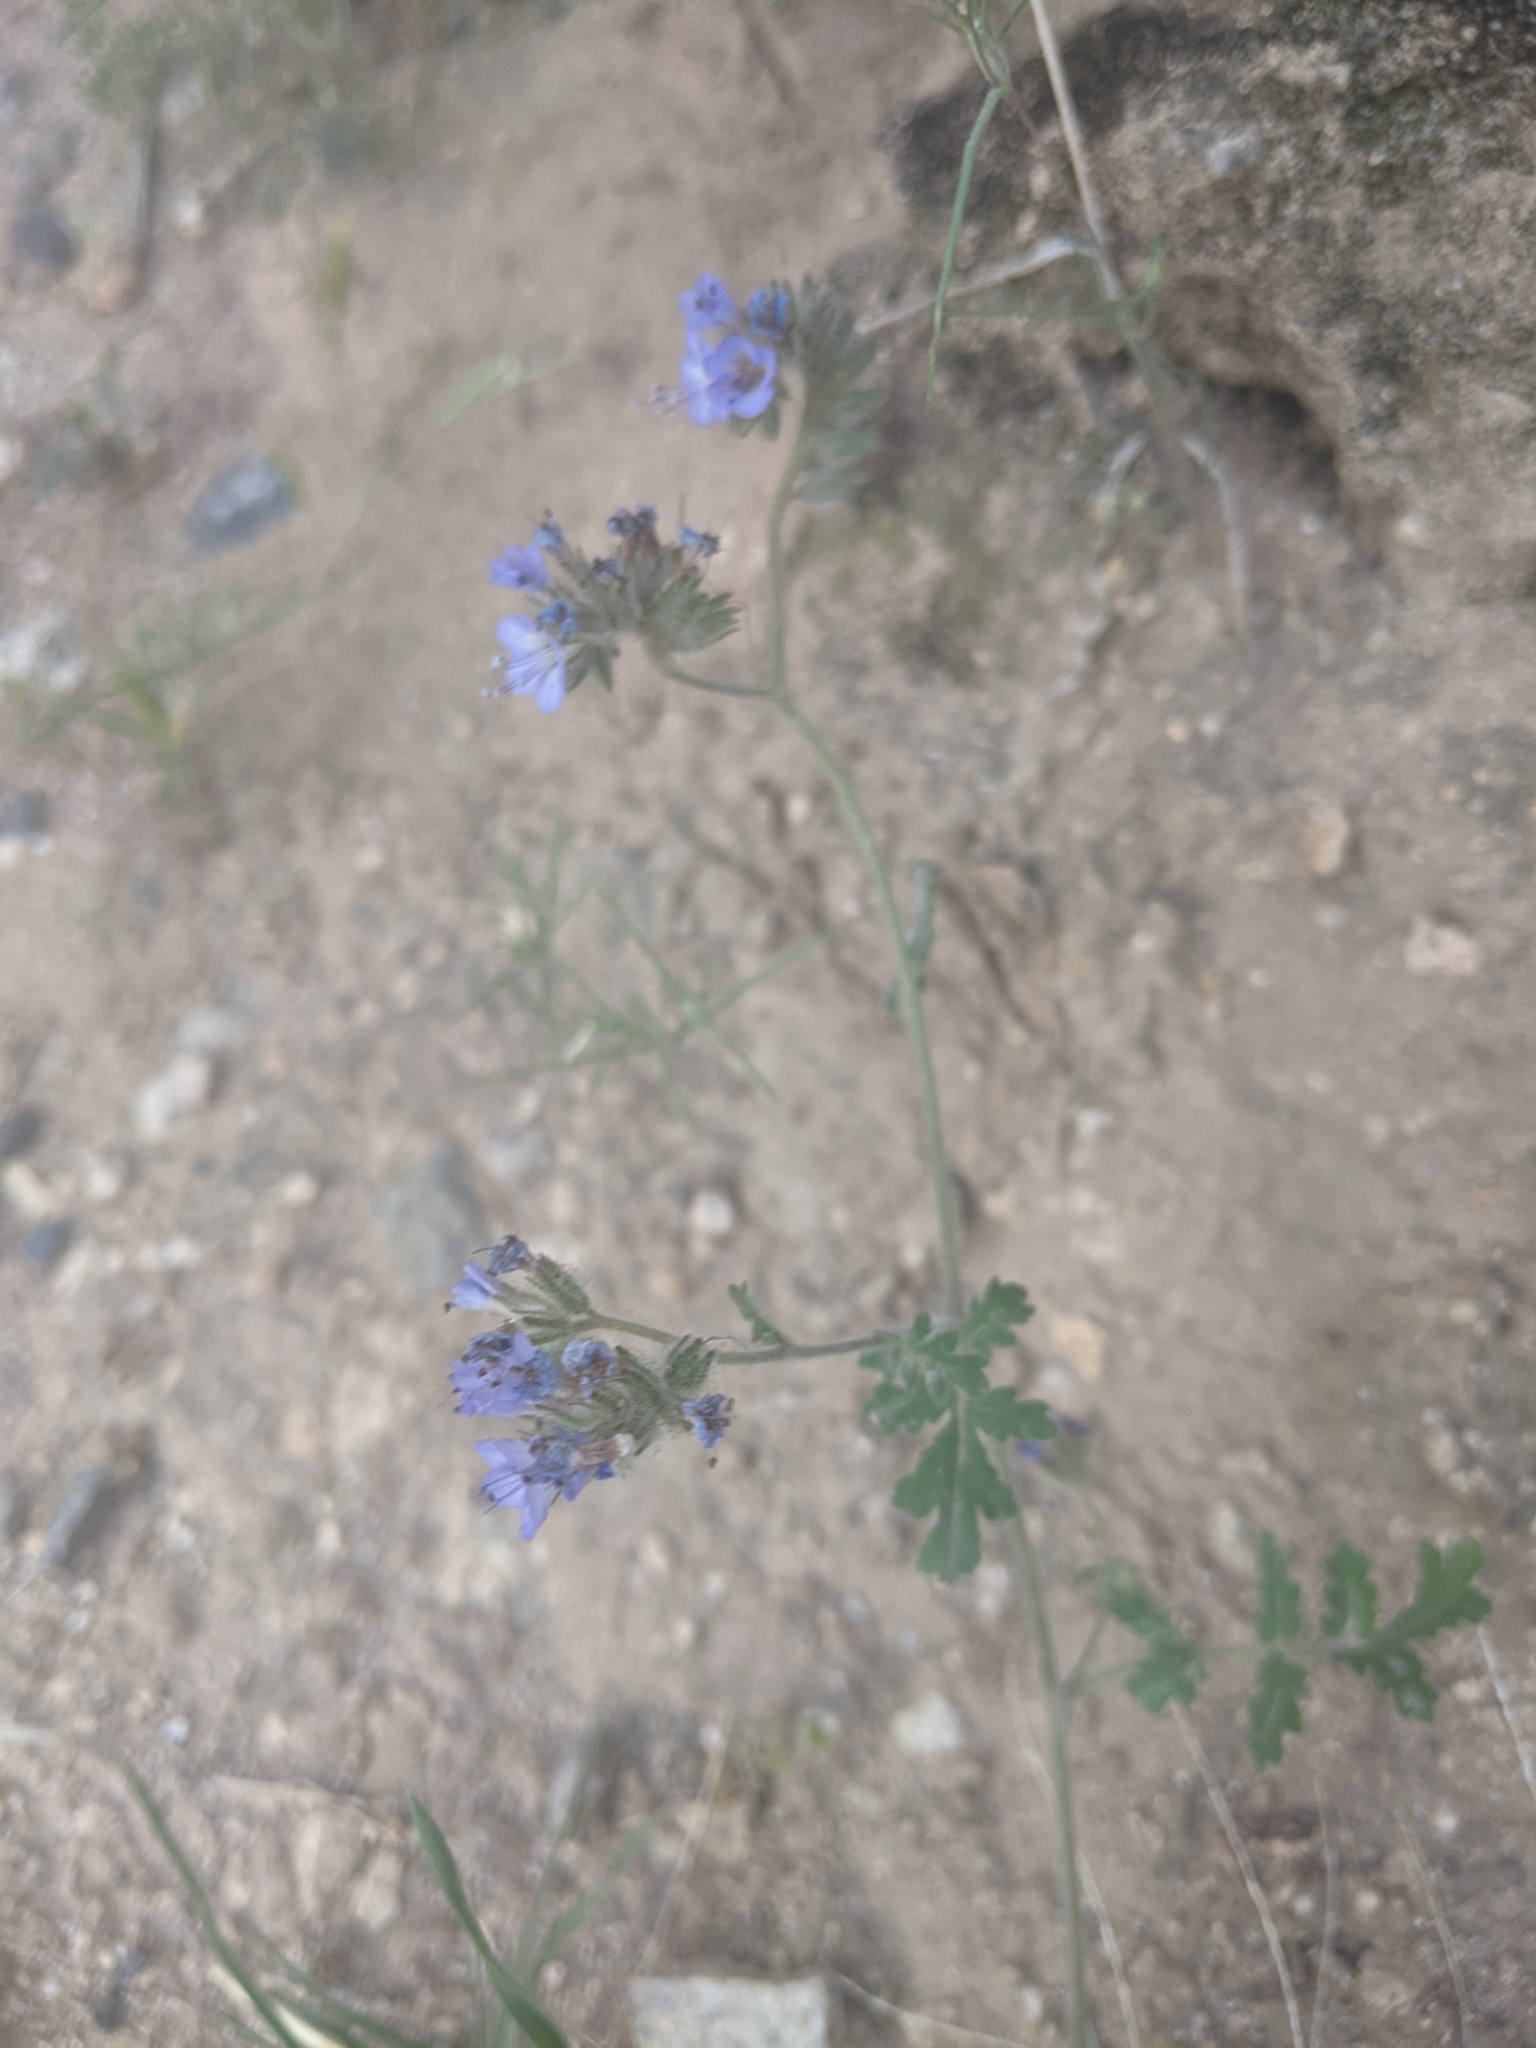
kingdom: Plantae
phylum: Tracheophyta
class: Magnoliopsida
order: Boraginales
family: Hydrophyllaceae
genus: Phacelia
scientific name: Phacelia distans
